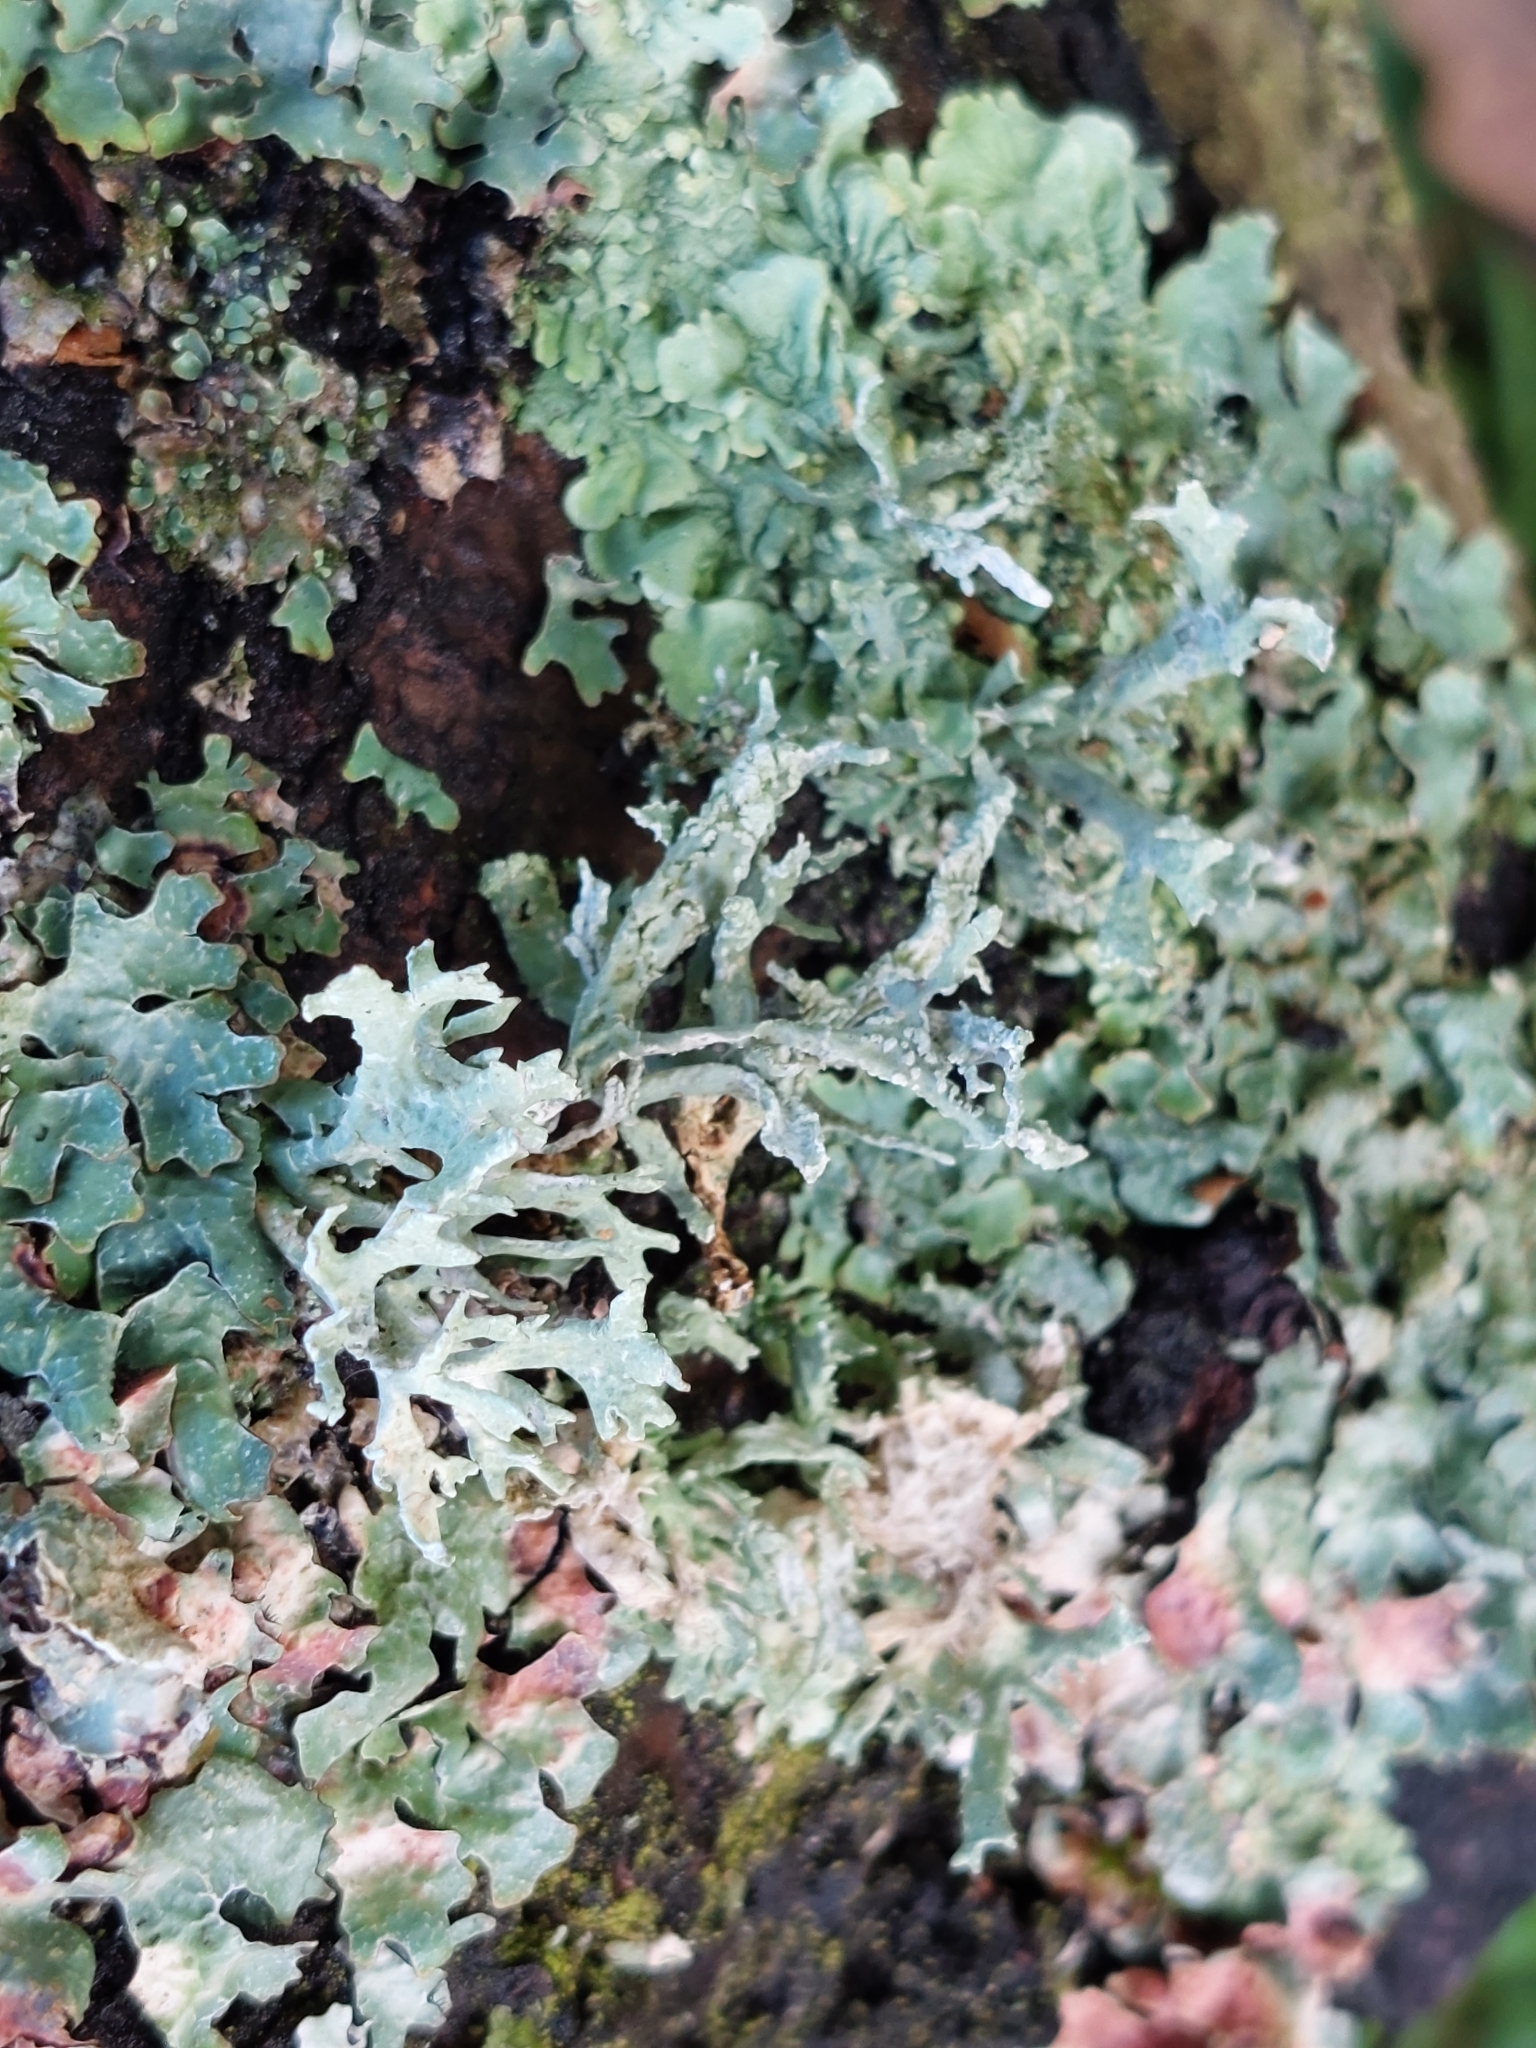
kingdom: Fungi
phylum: Ascomycota
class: Lecanoromycetes
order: Lecanorales
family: Parmeliaceae
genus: Evernia
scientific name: Evernia prunastri
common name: Oak moss
